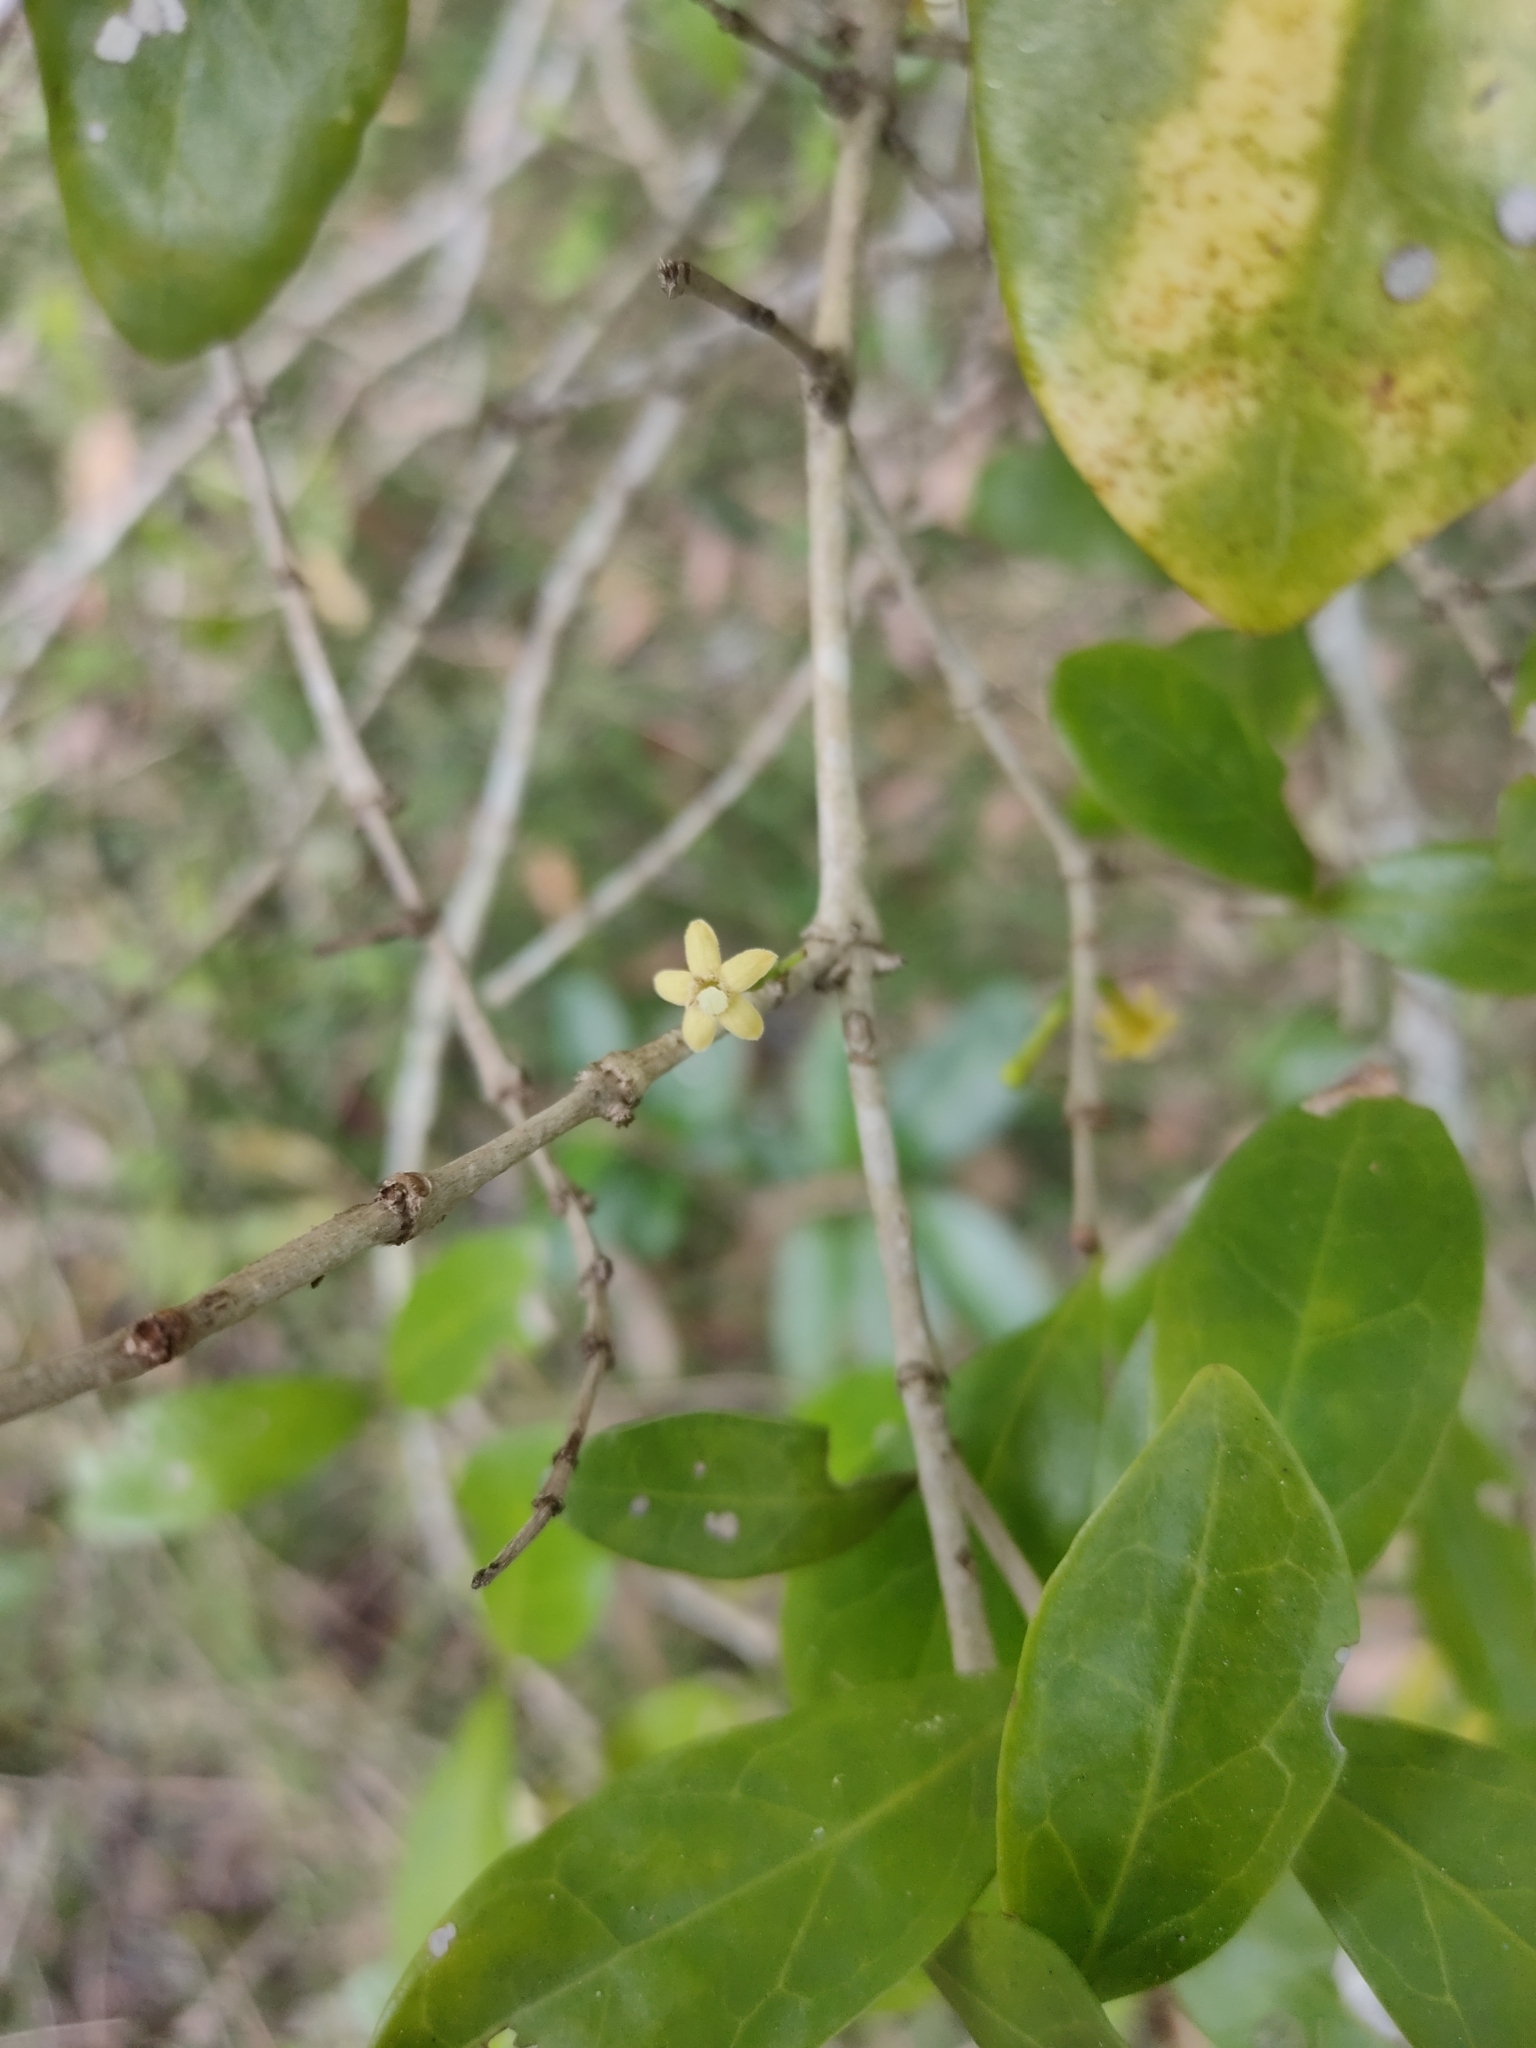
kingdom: Plantae
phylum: Tracheophyta
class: Magnoliopsida
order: Gentianales
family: Rubiaceae
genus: Cyclophyllum
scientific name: Cyclophyllum coprosmoides
